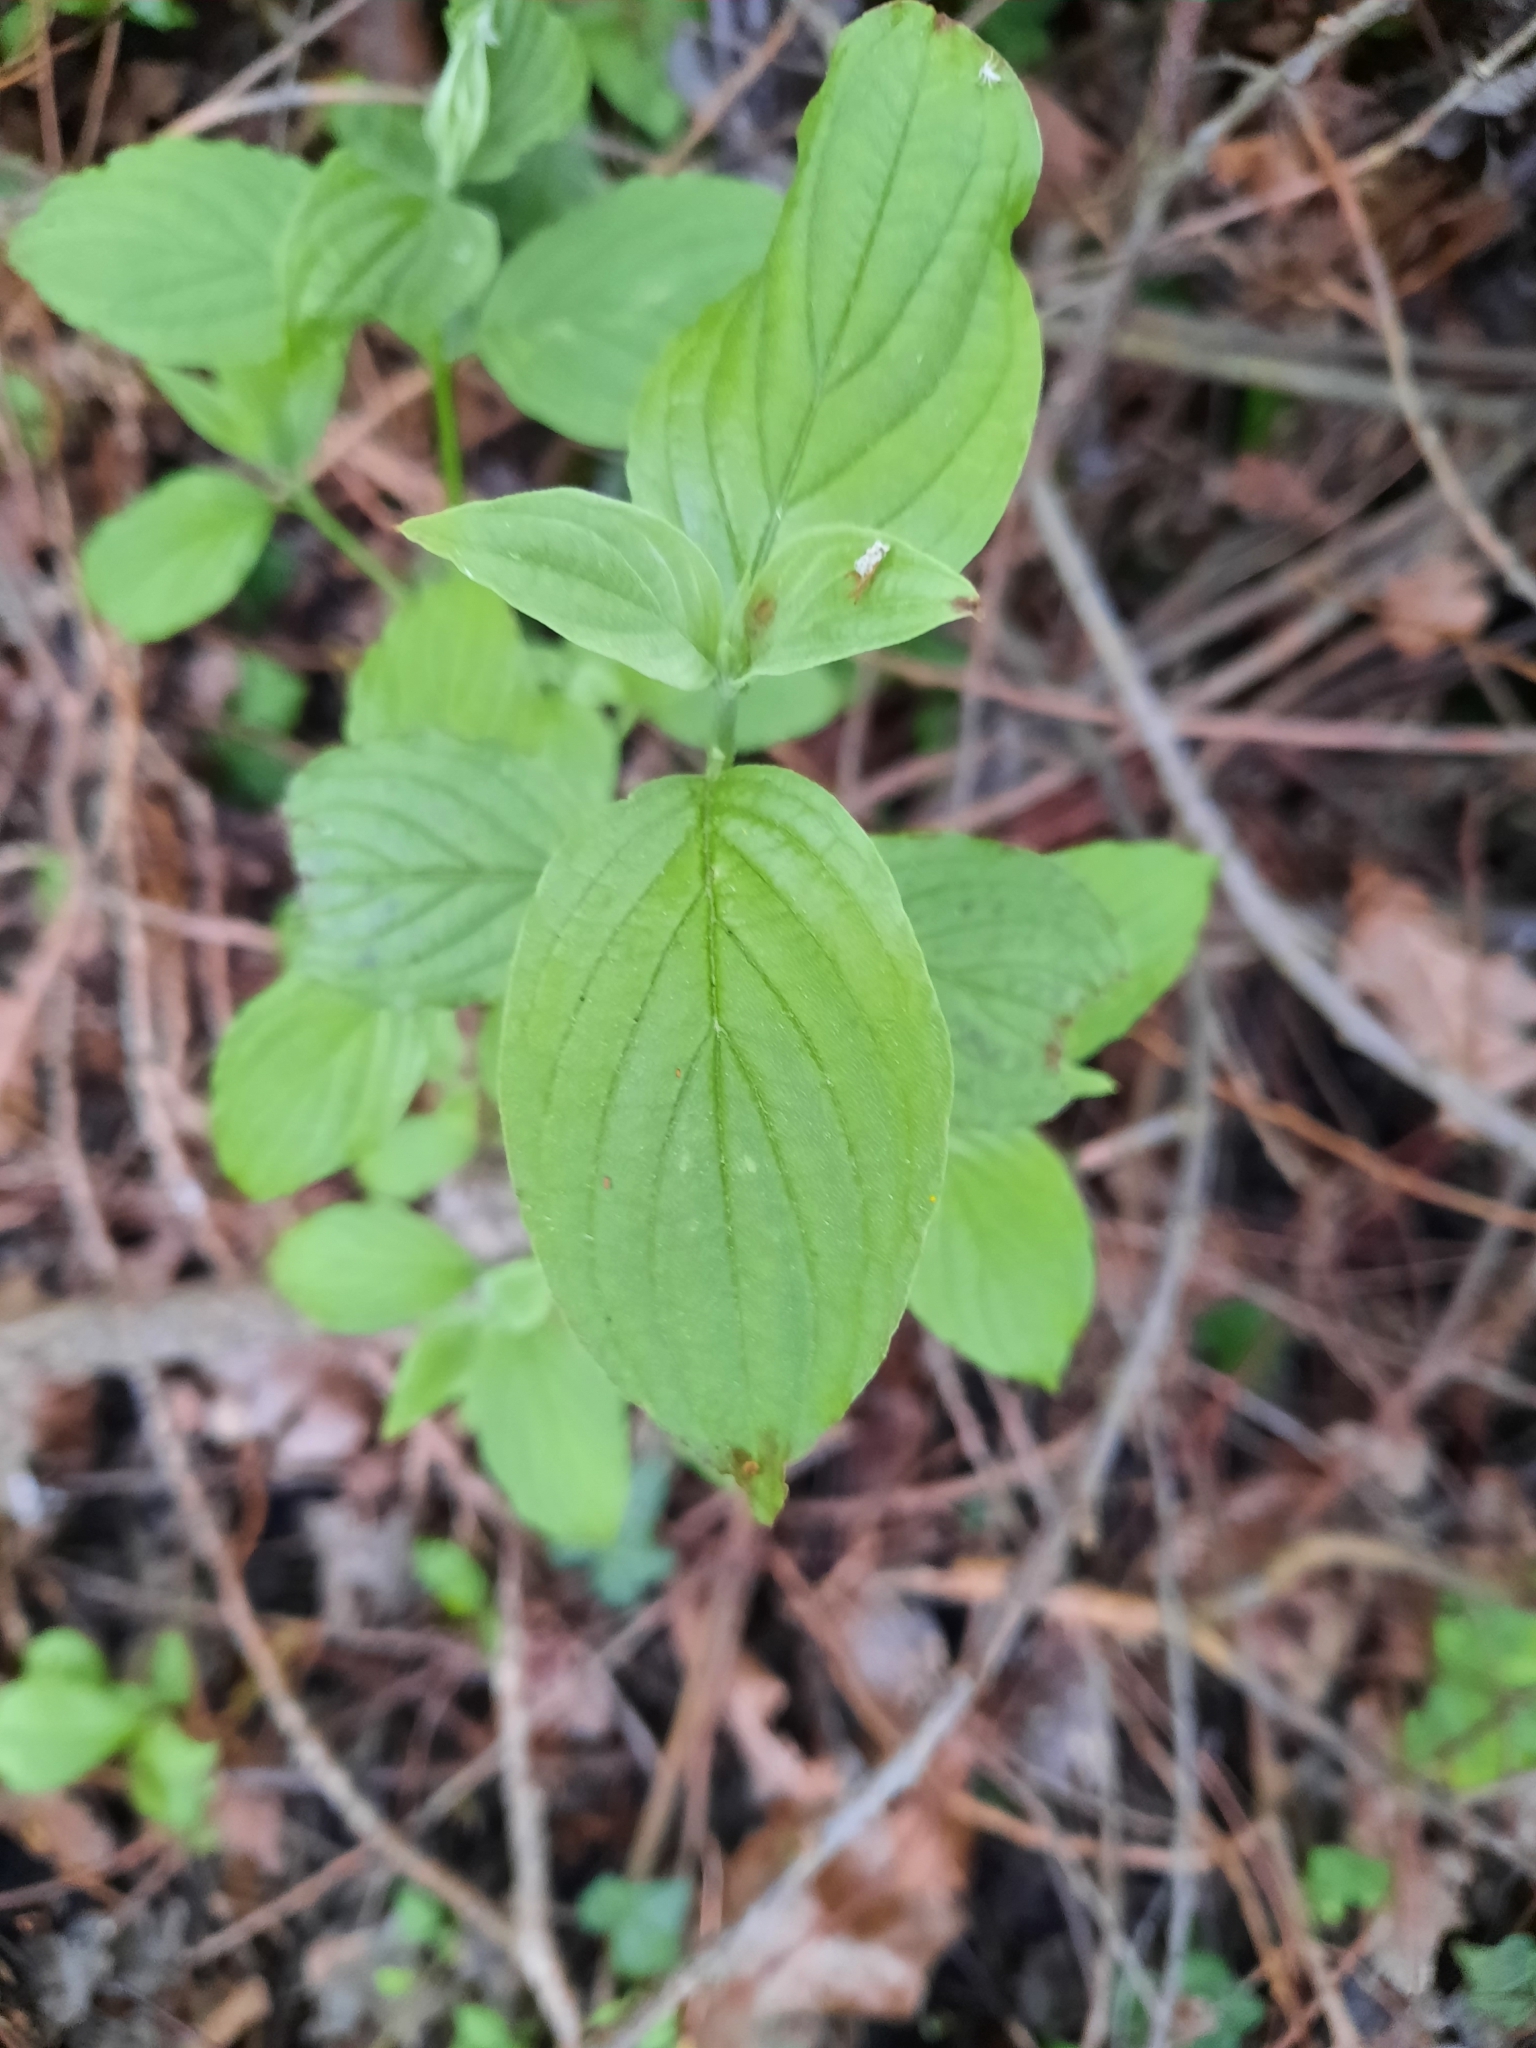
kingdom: Plantae
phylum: Tracheophyta
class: Magnoliopsida
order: Cornales
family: Cornaceae
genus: Cornus
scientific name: Cornus sanguinea
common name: Dogwood
